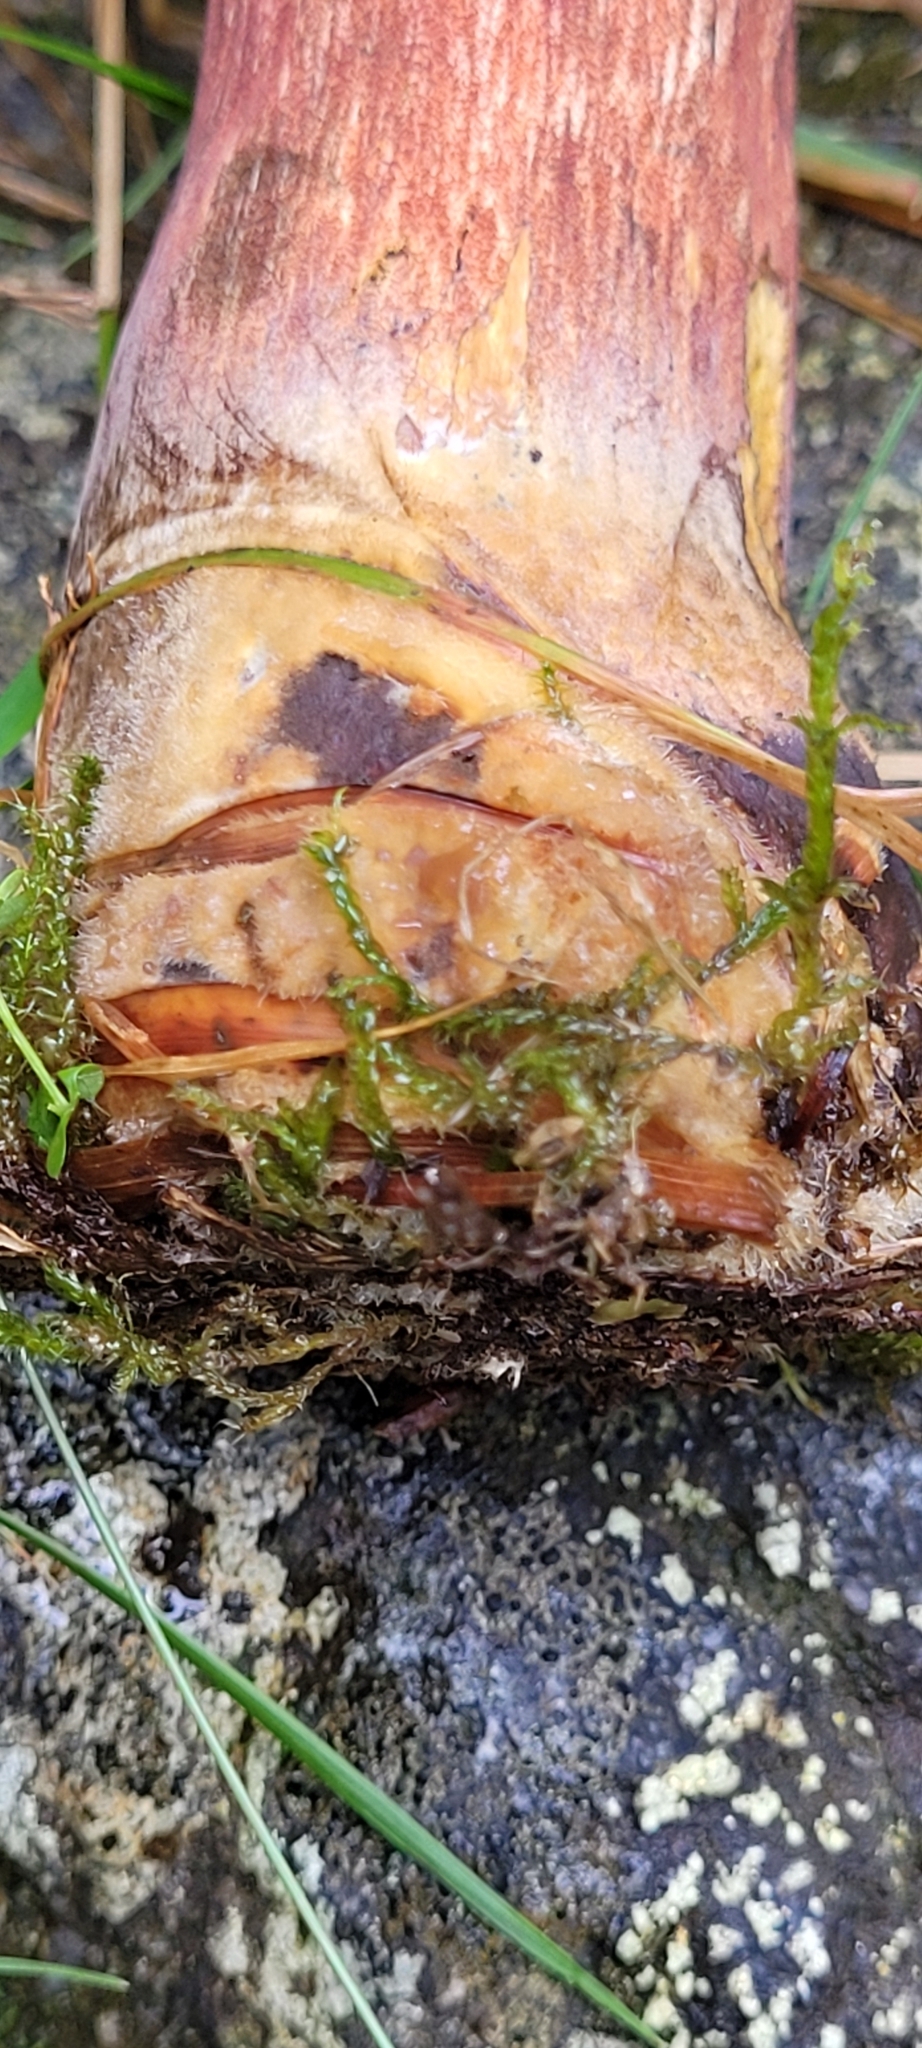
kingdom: Fungi
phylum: Basidiomycota
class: Agaricomycetes
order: Boletales
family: Boletaceae
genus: Neoboletus
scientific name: Neoboletus erythropus
